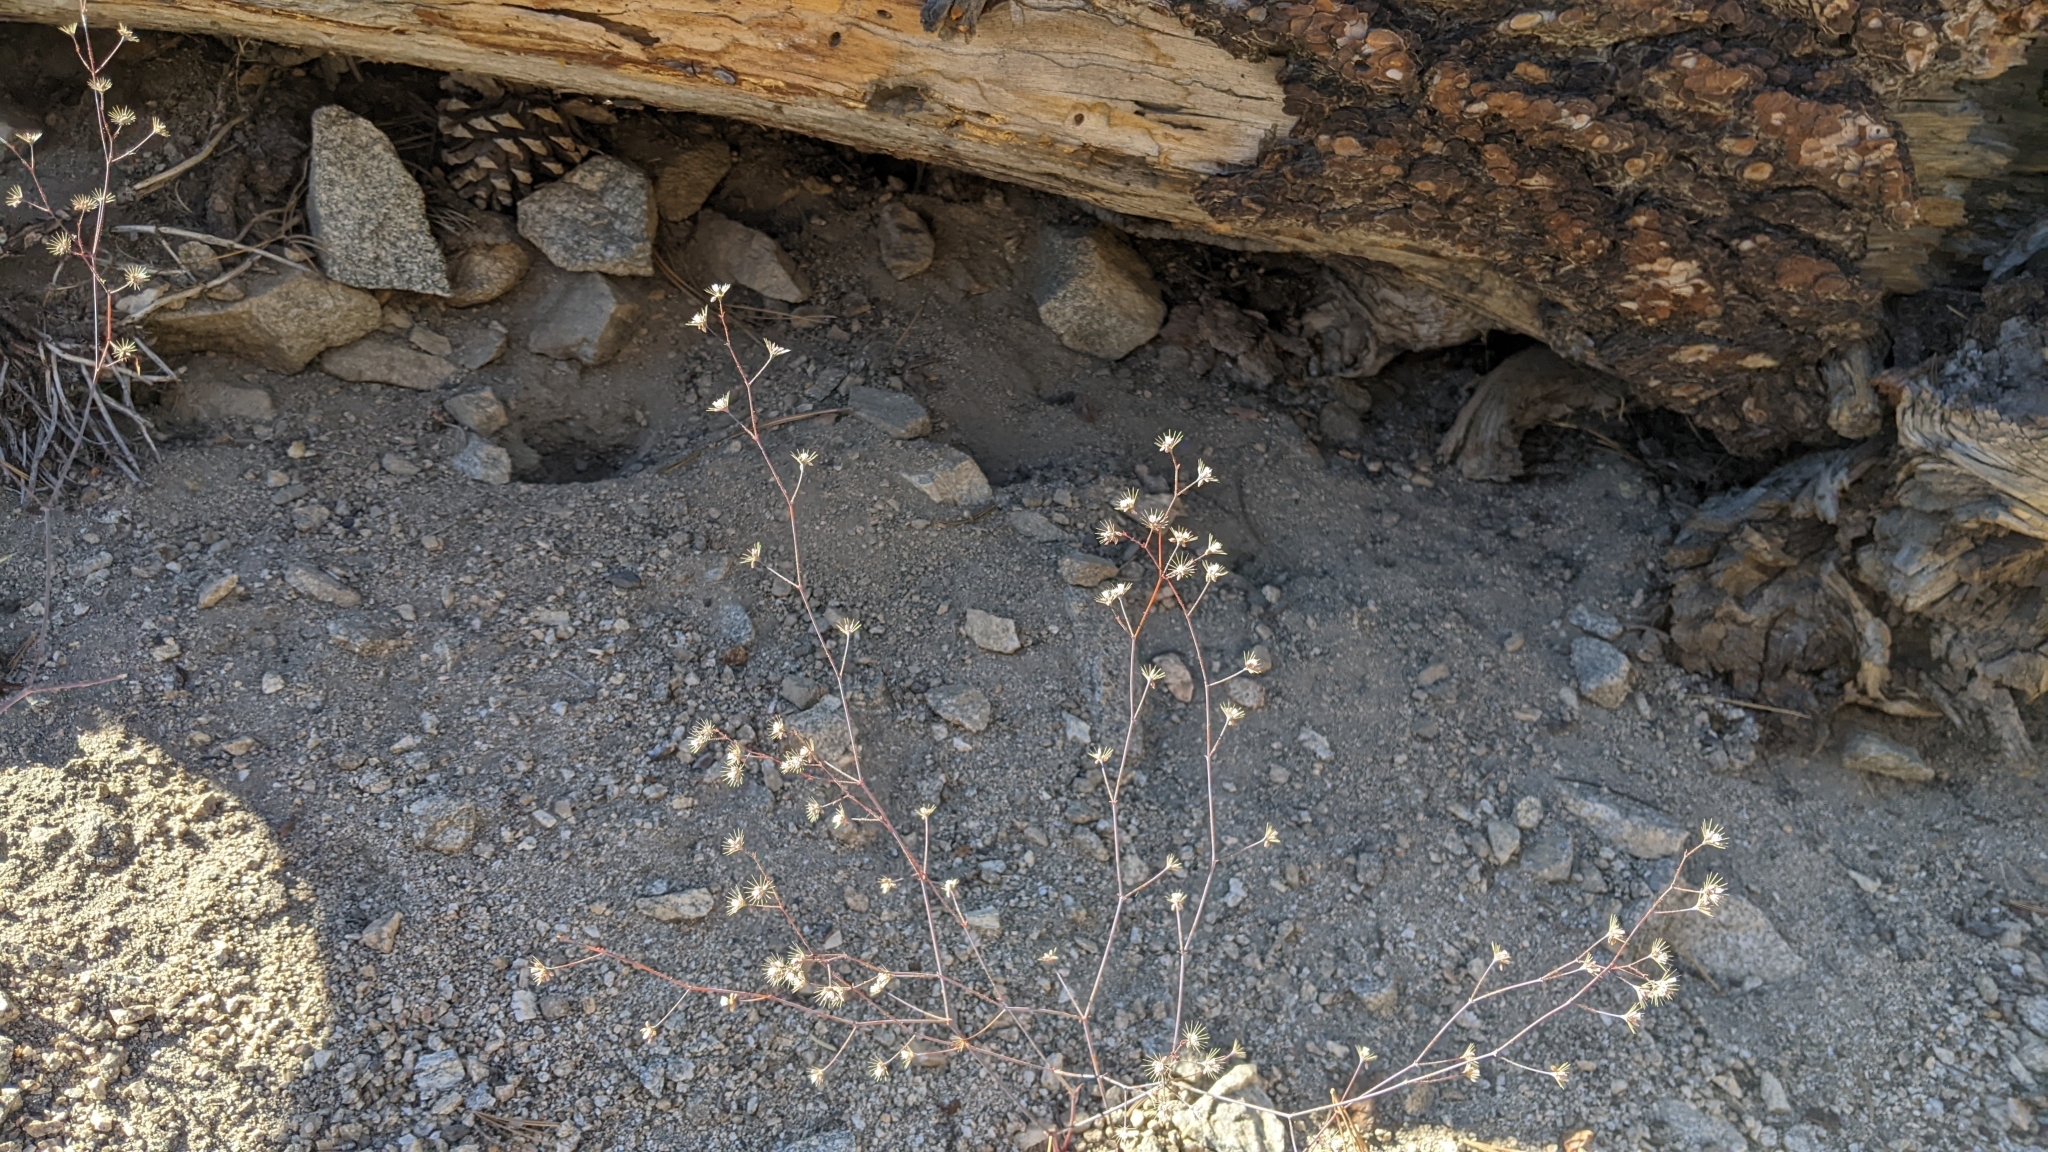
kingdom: Plantae
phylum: Tracheophyta
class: Magnoliopsida
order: Caryophyllales
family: Polygonaceae
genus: Acanthoscyphus
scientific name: Acanthoscyphus parishii
